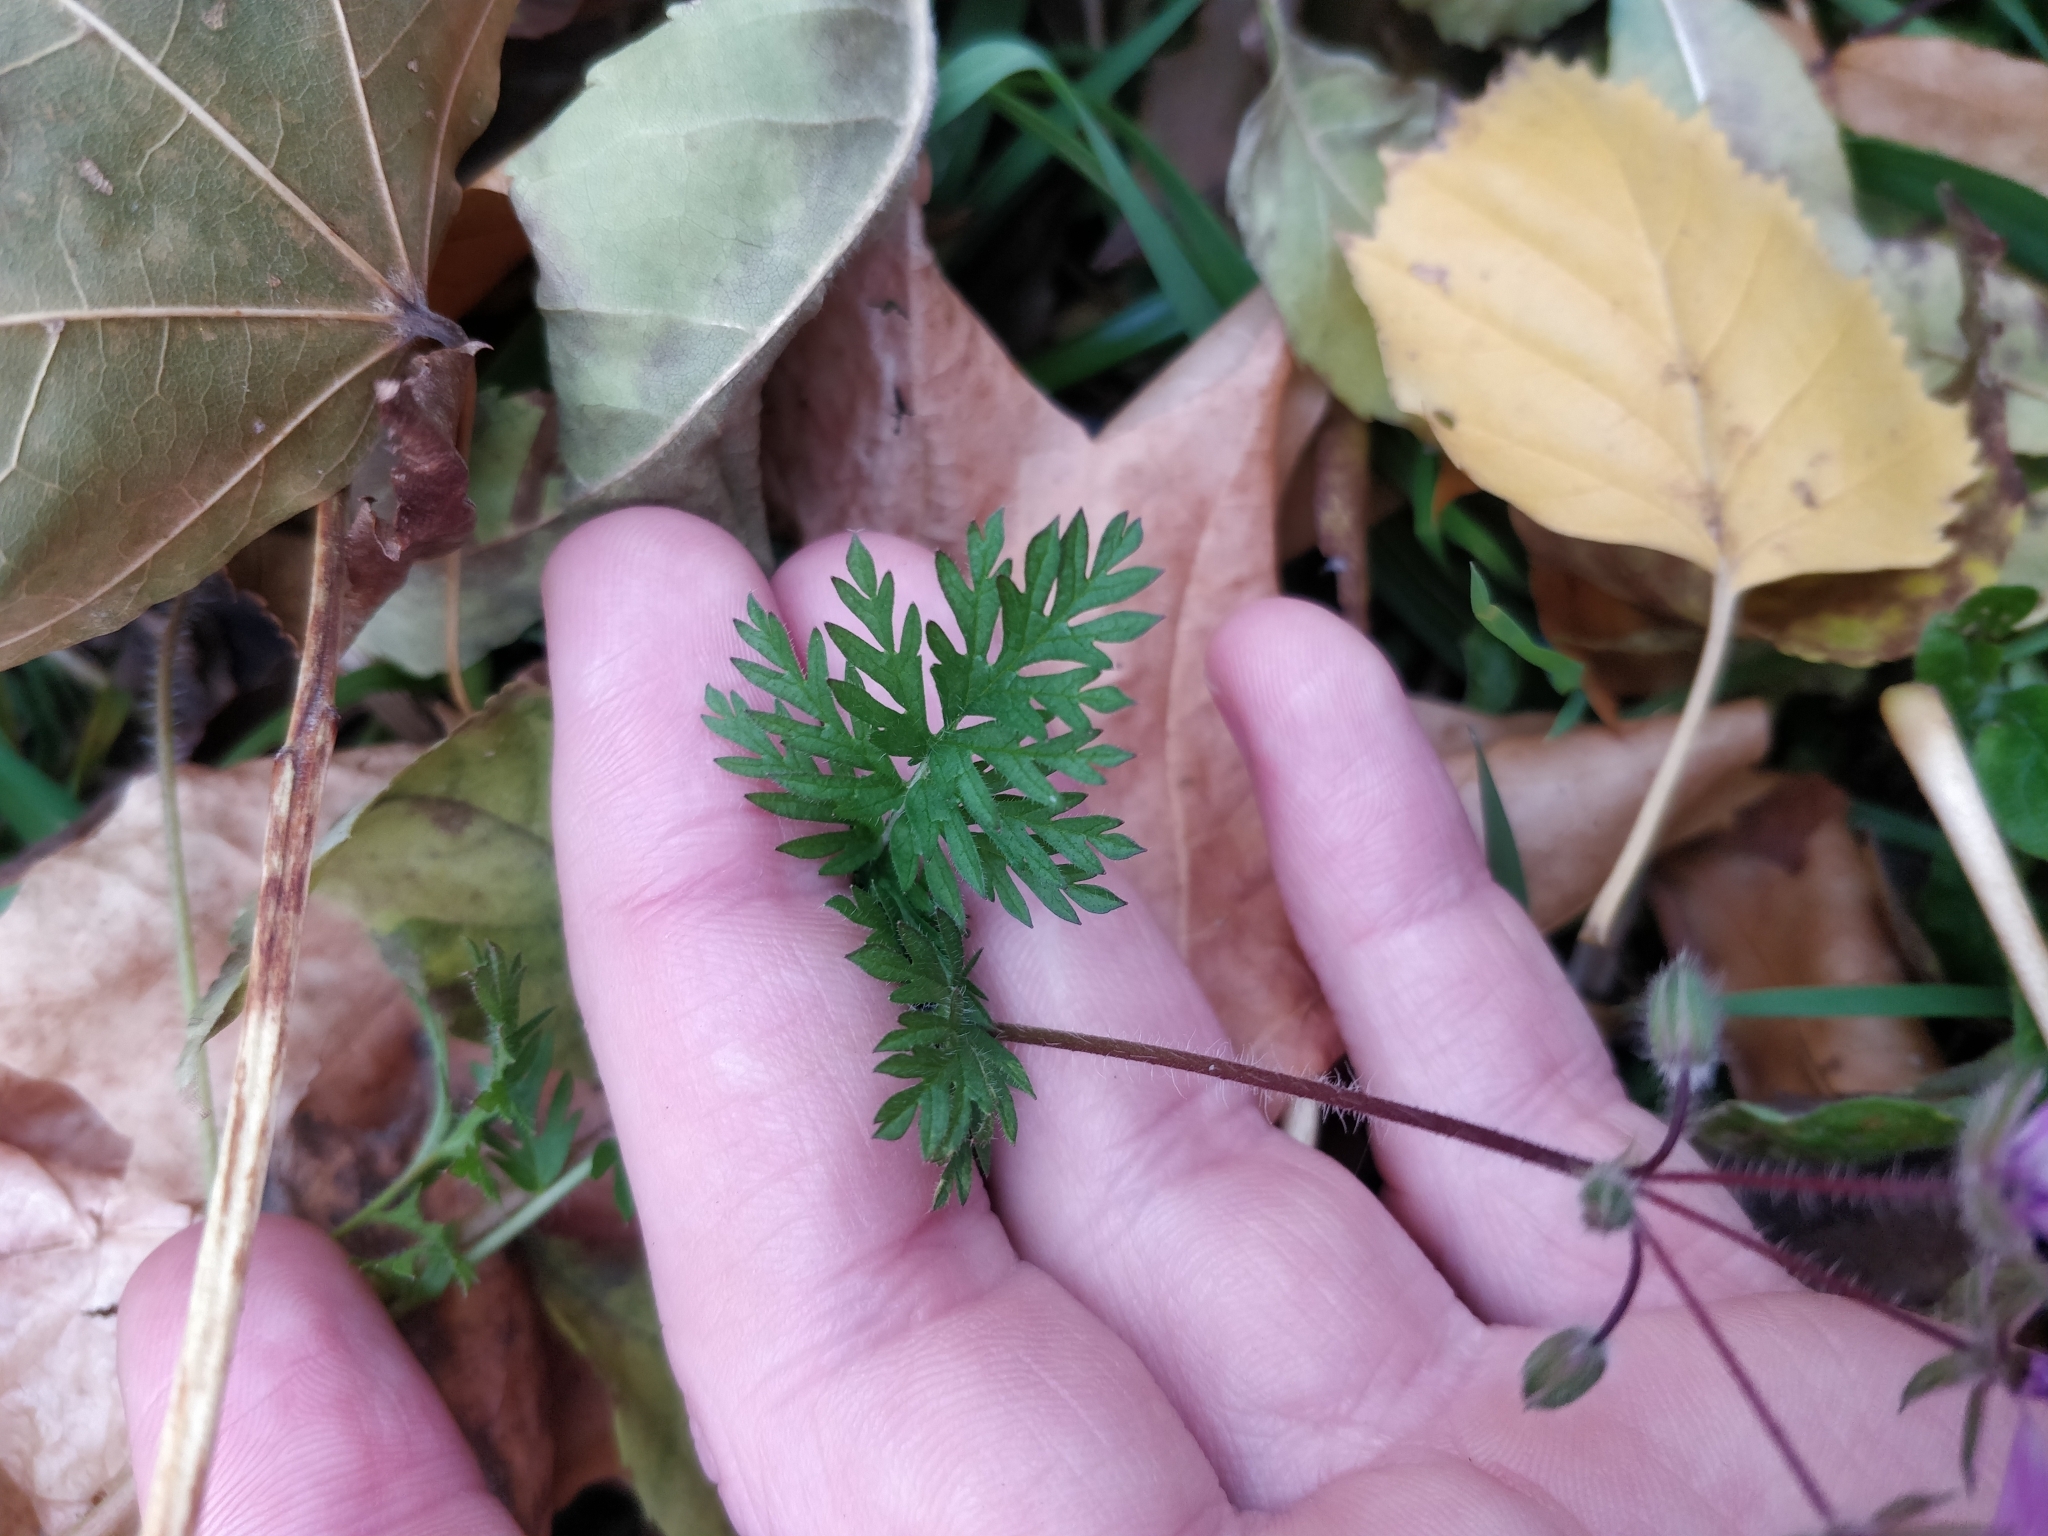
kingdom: Plantae
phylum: Tracheophyta
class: Magnoliopsida
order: Geraniales
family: Geraniaceae
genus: Erodium
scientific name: Erodium cicutarium
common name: Common stork's-bill
